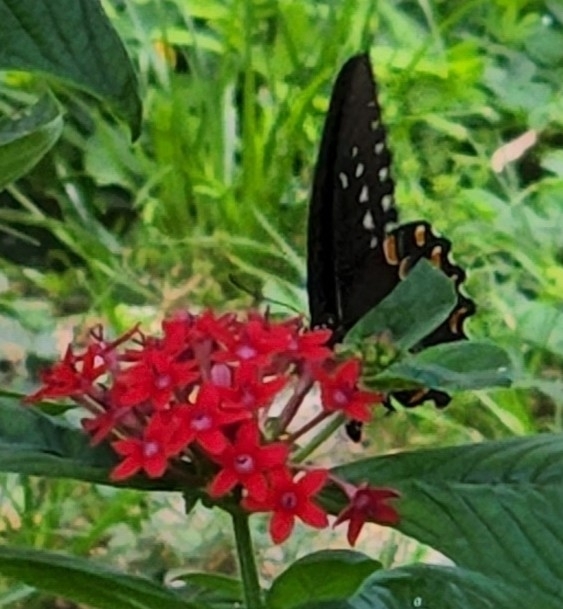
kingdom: Animalia
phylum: Arthropoda
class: Insecta
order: Lepidoptera
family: Papilionidae
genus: Papilio
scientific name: Papilio troilus
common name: Spicebush swallowtail
